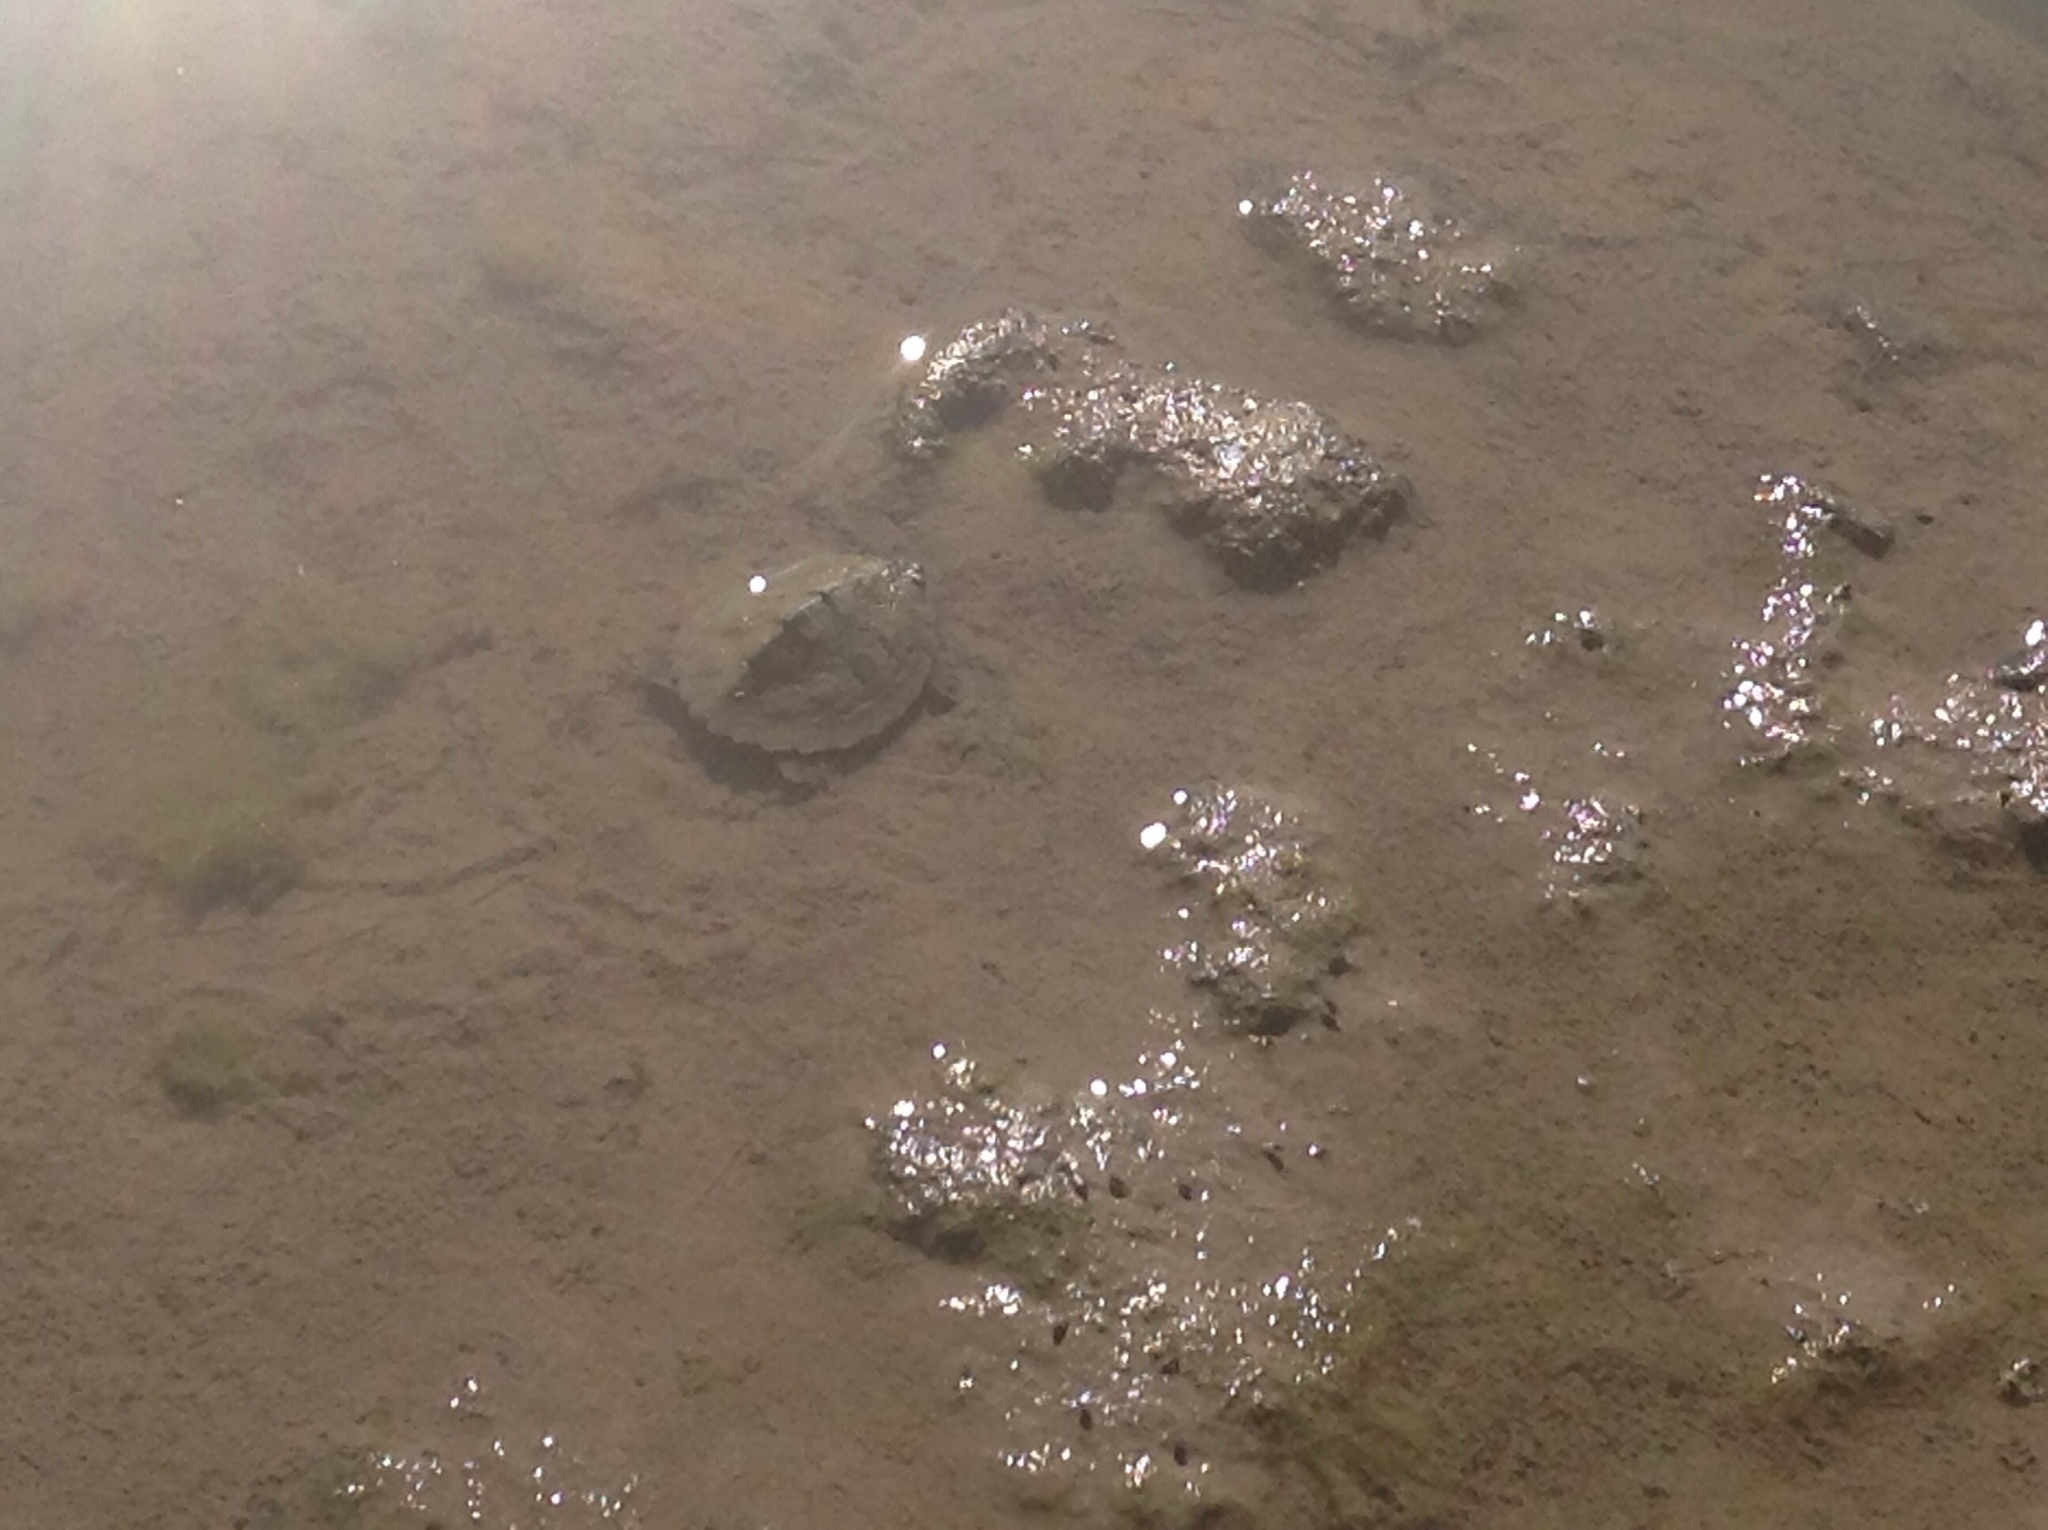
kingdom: Animalia
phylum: Chordata
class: Testudines
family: Emydidae
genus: Graptemys
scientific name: Graptemys geographica
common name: Common map turtle
